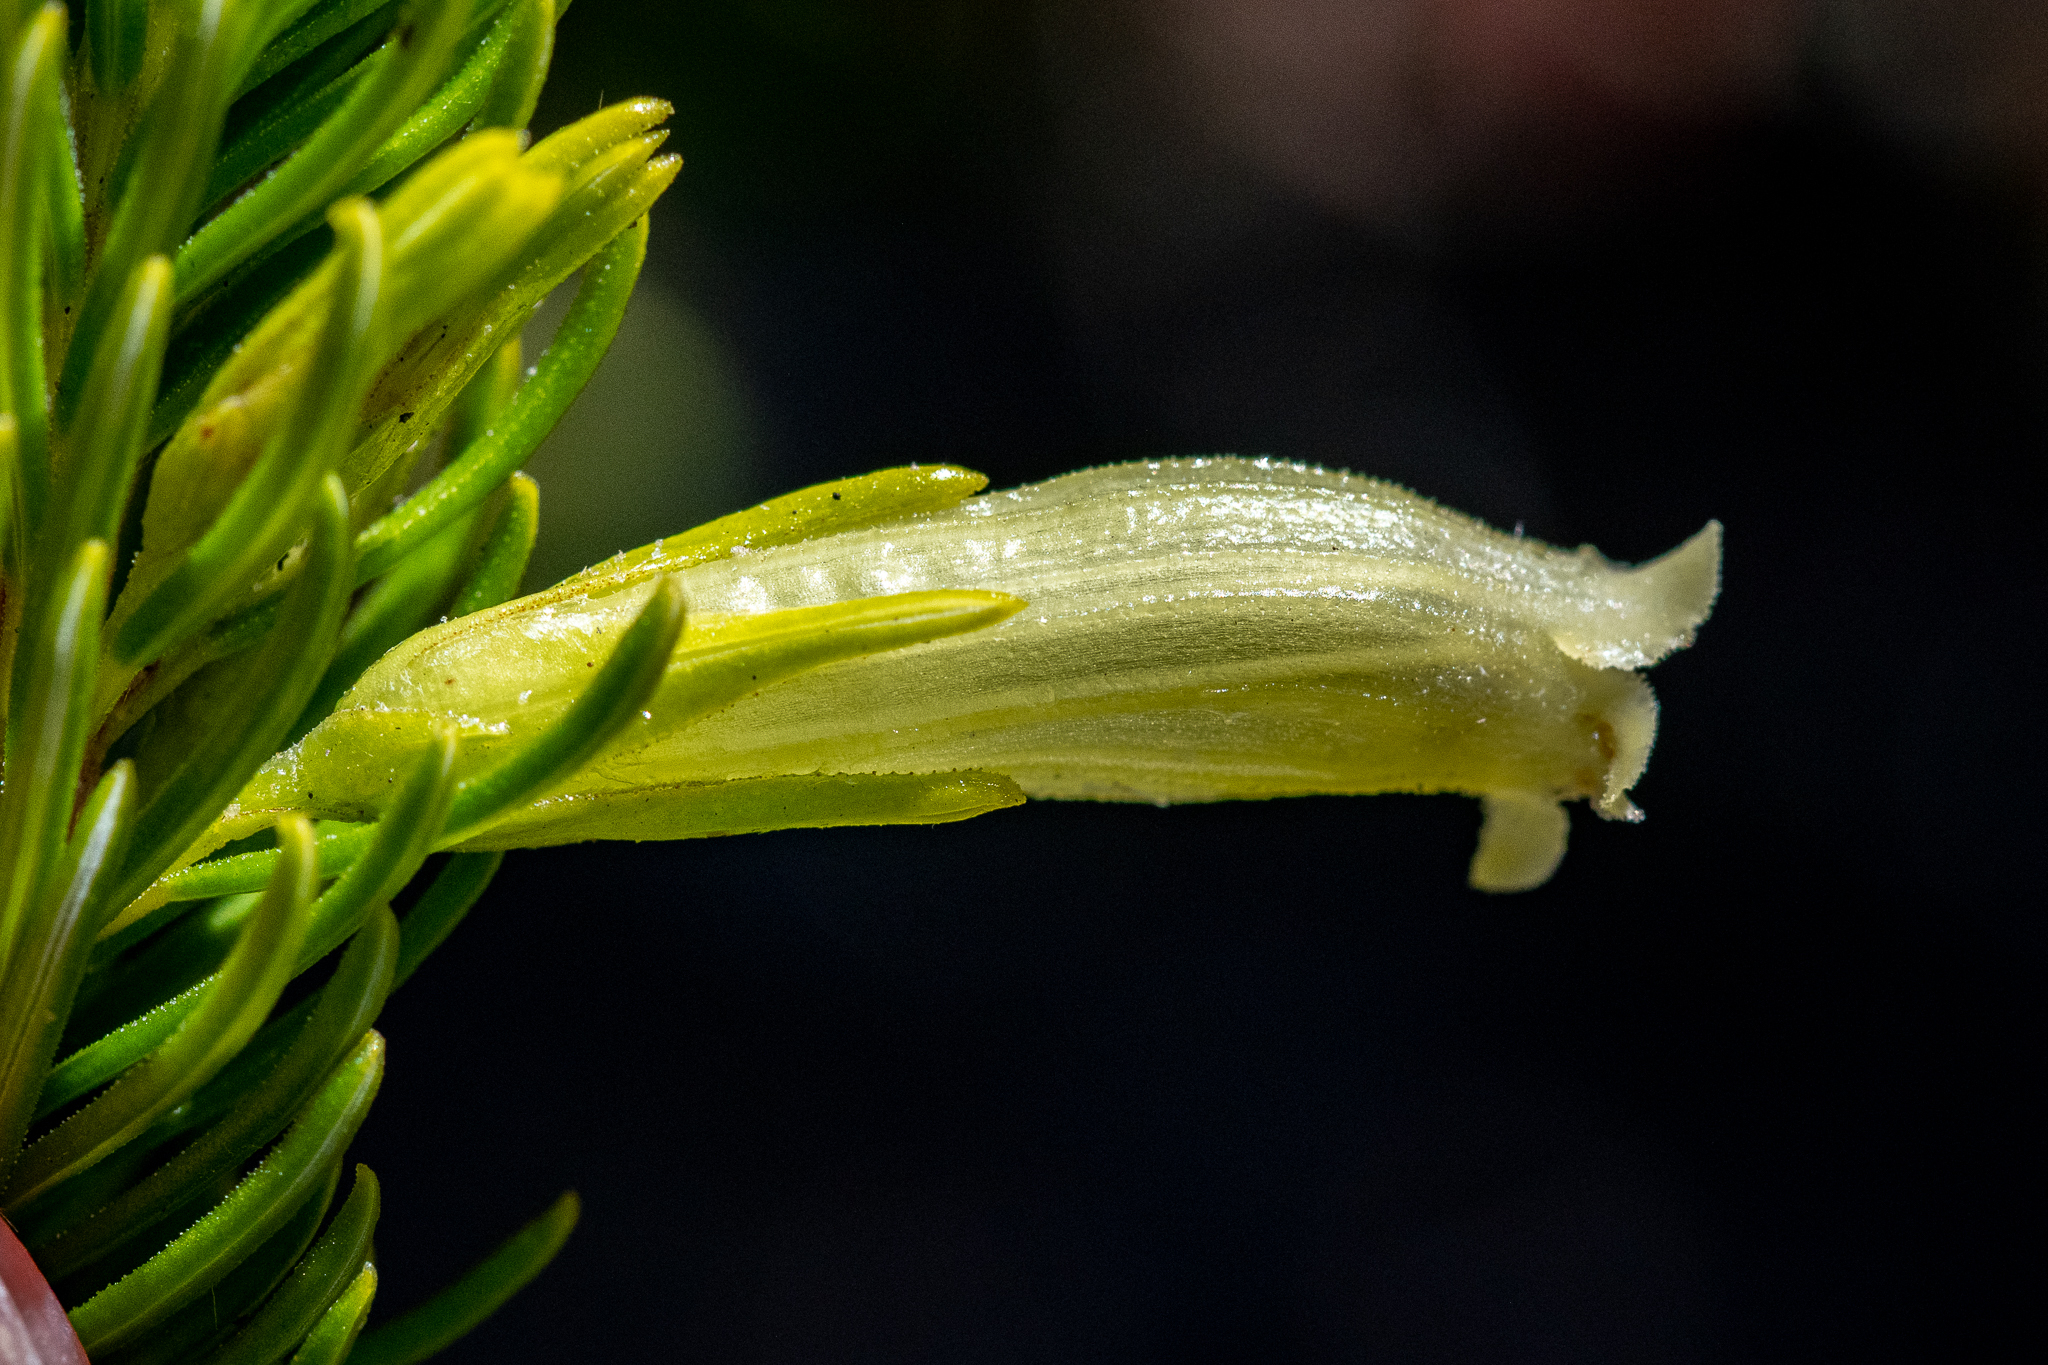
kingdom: Plantae
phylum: Tracheophyta
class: Magnoliopsida
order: Ericales
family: Ericaceae
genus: Erica
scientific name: Erica viscaria
